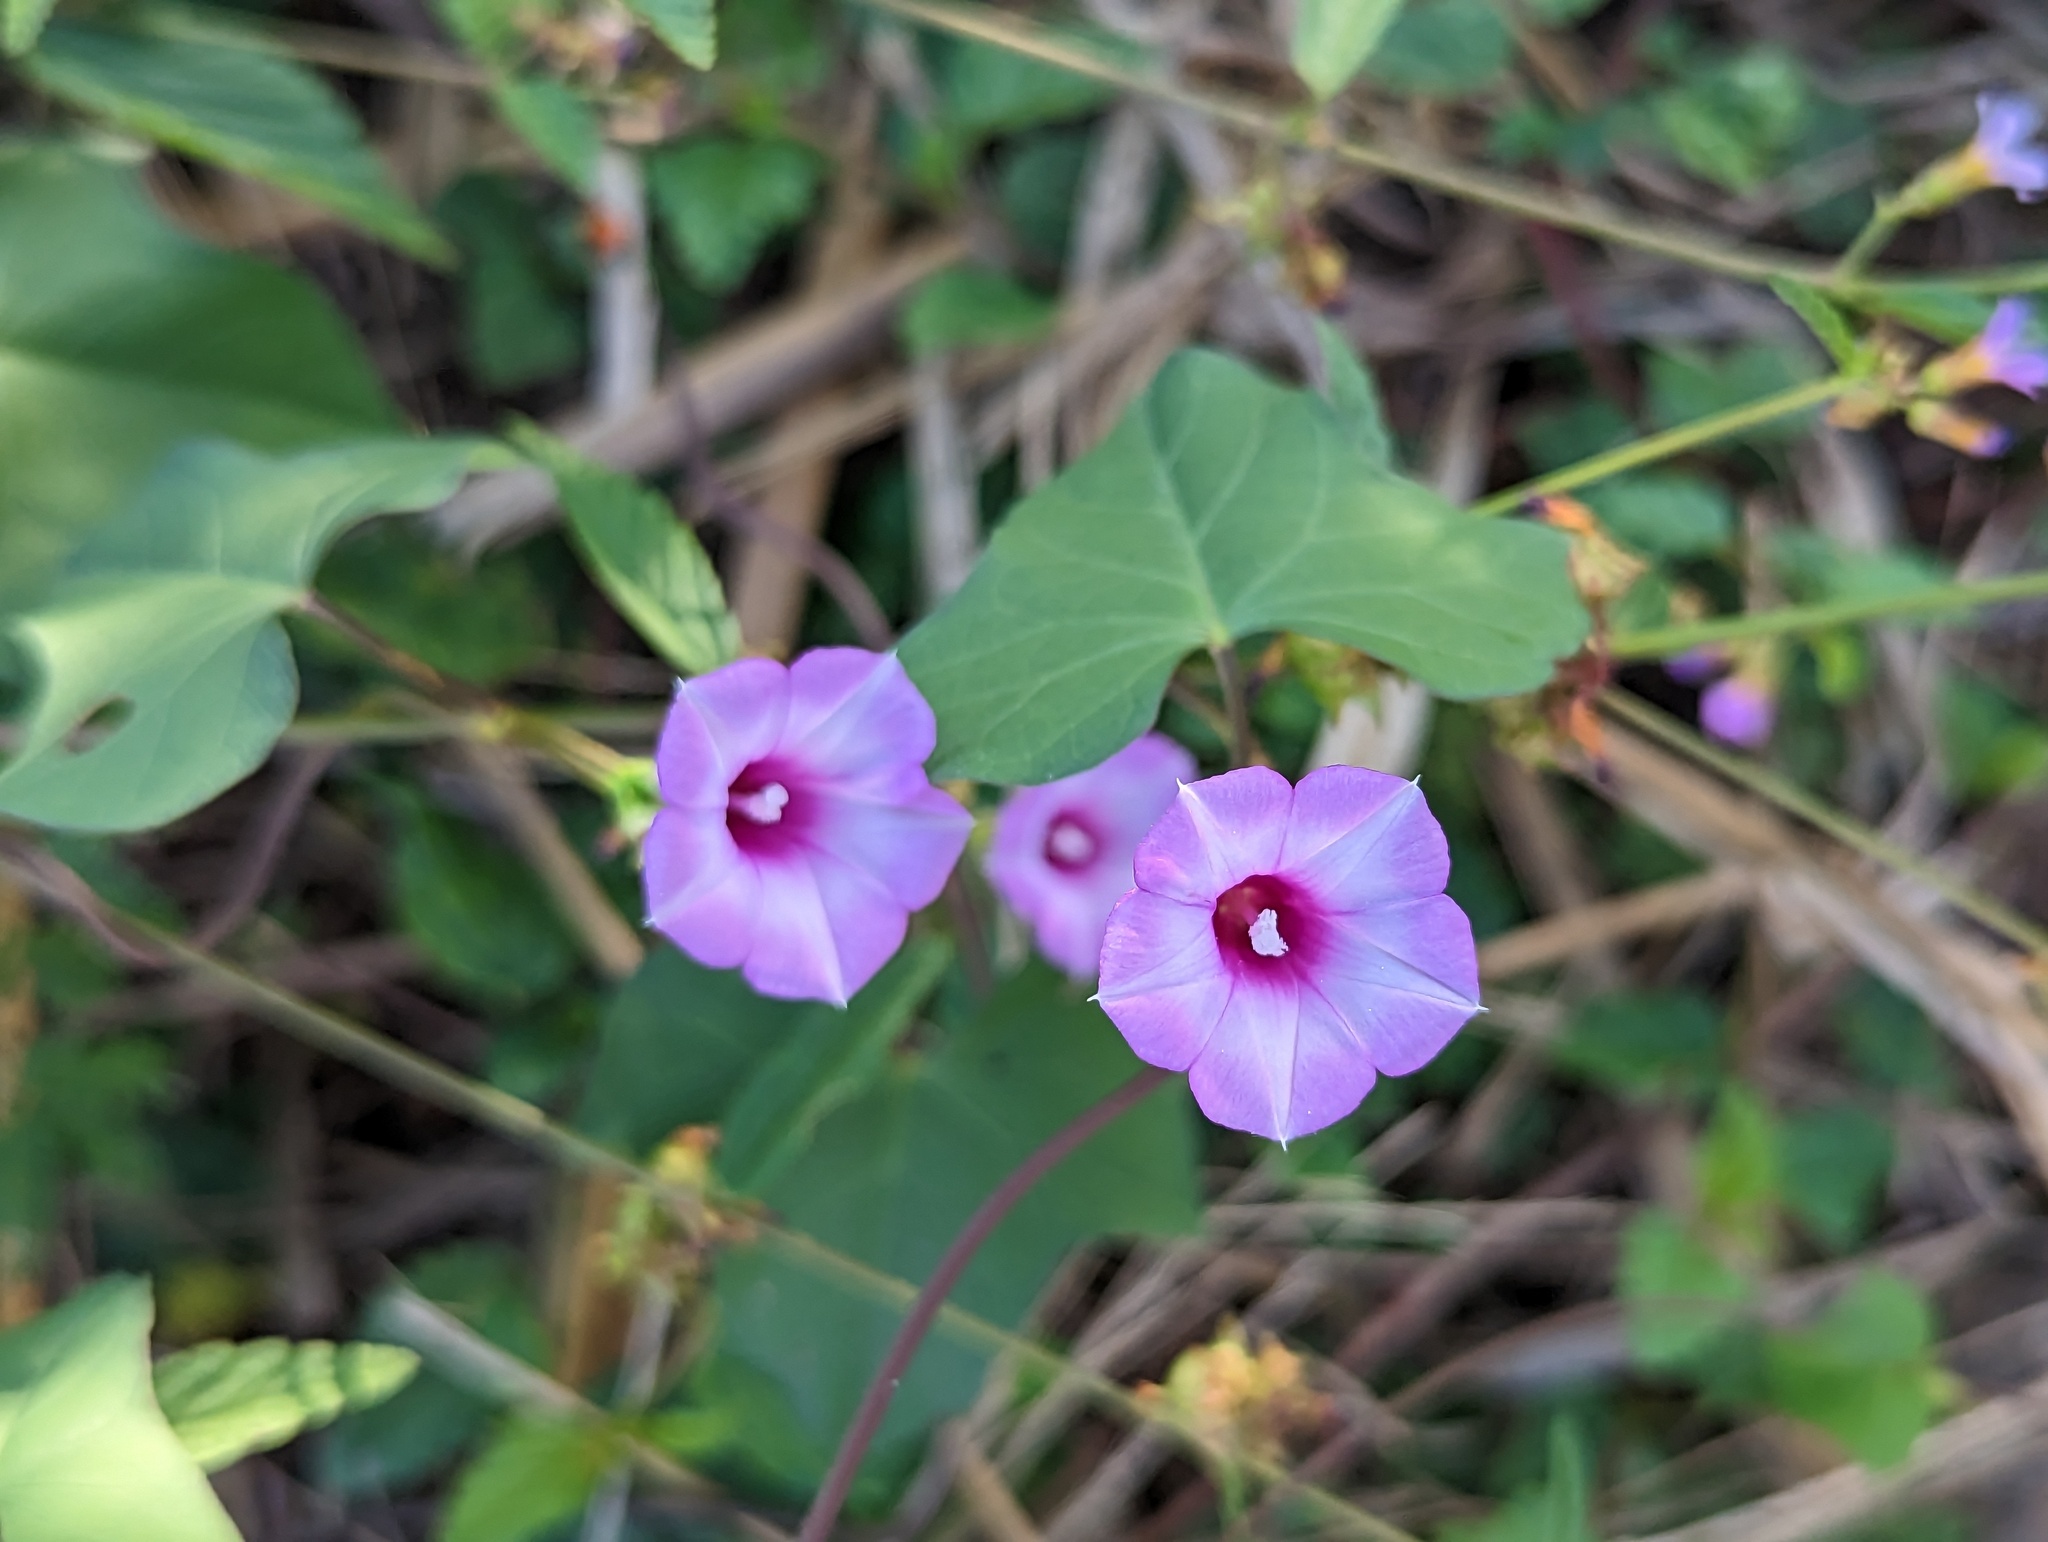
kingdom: Plantae
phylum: Tracheophyta
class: Magnoliopsida
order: Solanales
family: Convolvulaceae
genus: Ipomoea
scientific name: Ipomoea triloba
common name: Little-bell
